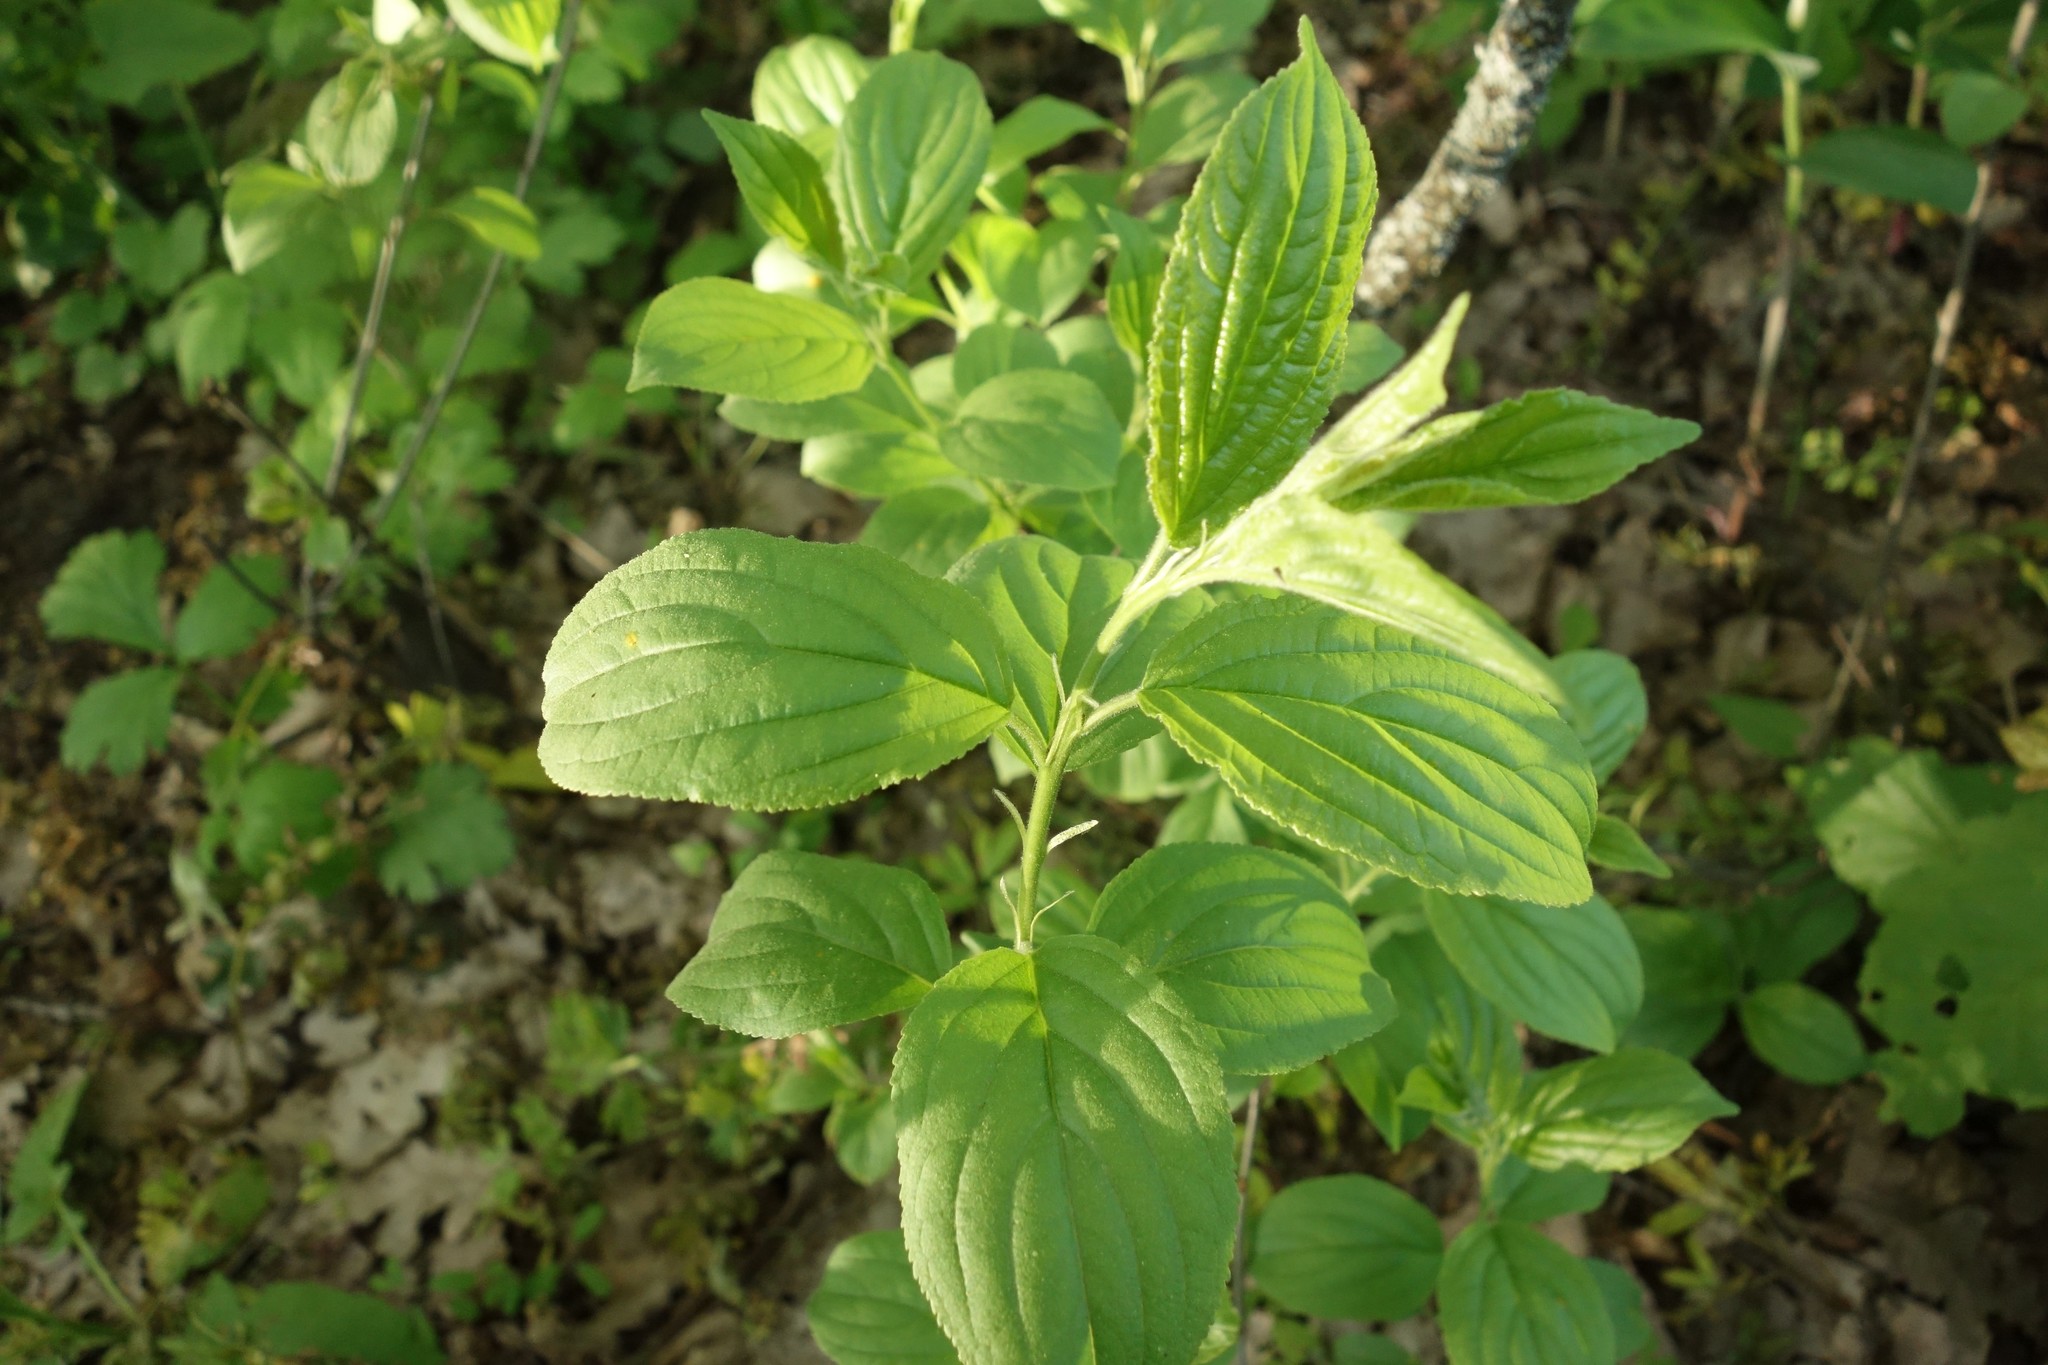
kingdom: Plantae
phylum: Tracheophyta
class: Magnoliopsida
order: Rosales
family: Rhamnaceae
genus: Rhamnus
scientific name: Rhamnus cathartica
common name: Common buckthorn
